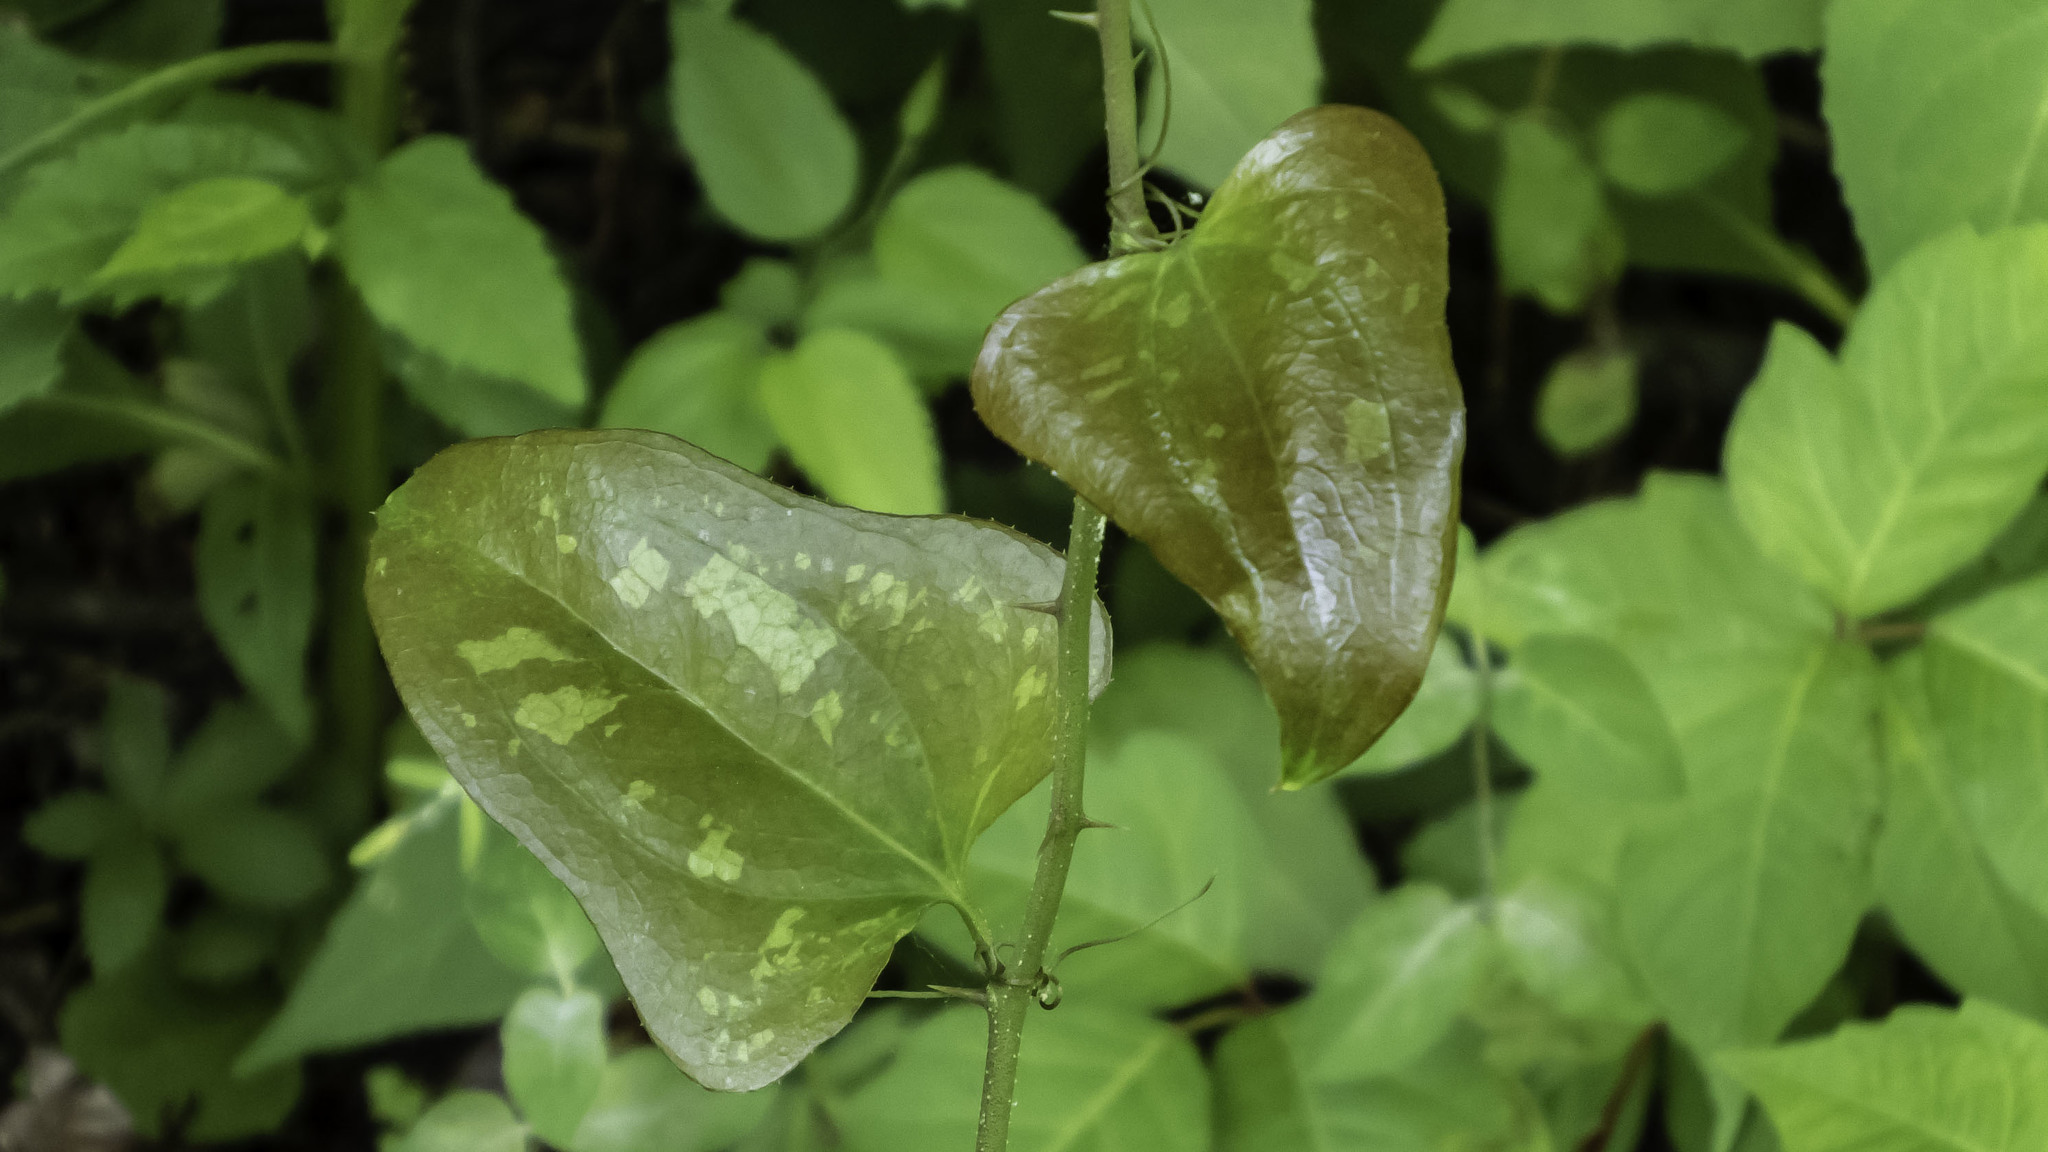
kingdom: Plantae
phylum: Tracheophyta
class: Liliopsida
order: Liliales
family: Smilacaceae
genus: Smilax
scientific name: Smilax bona-nox
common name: Catbrier
